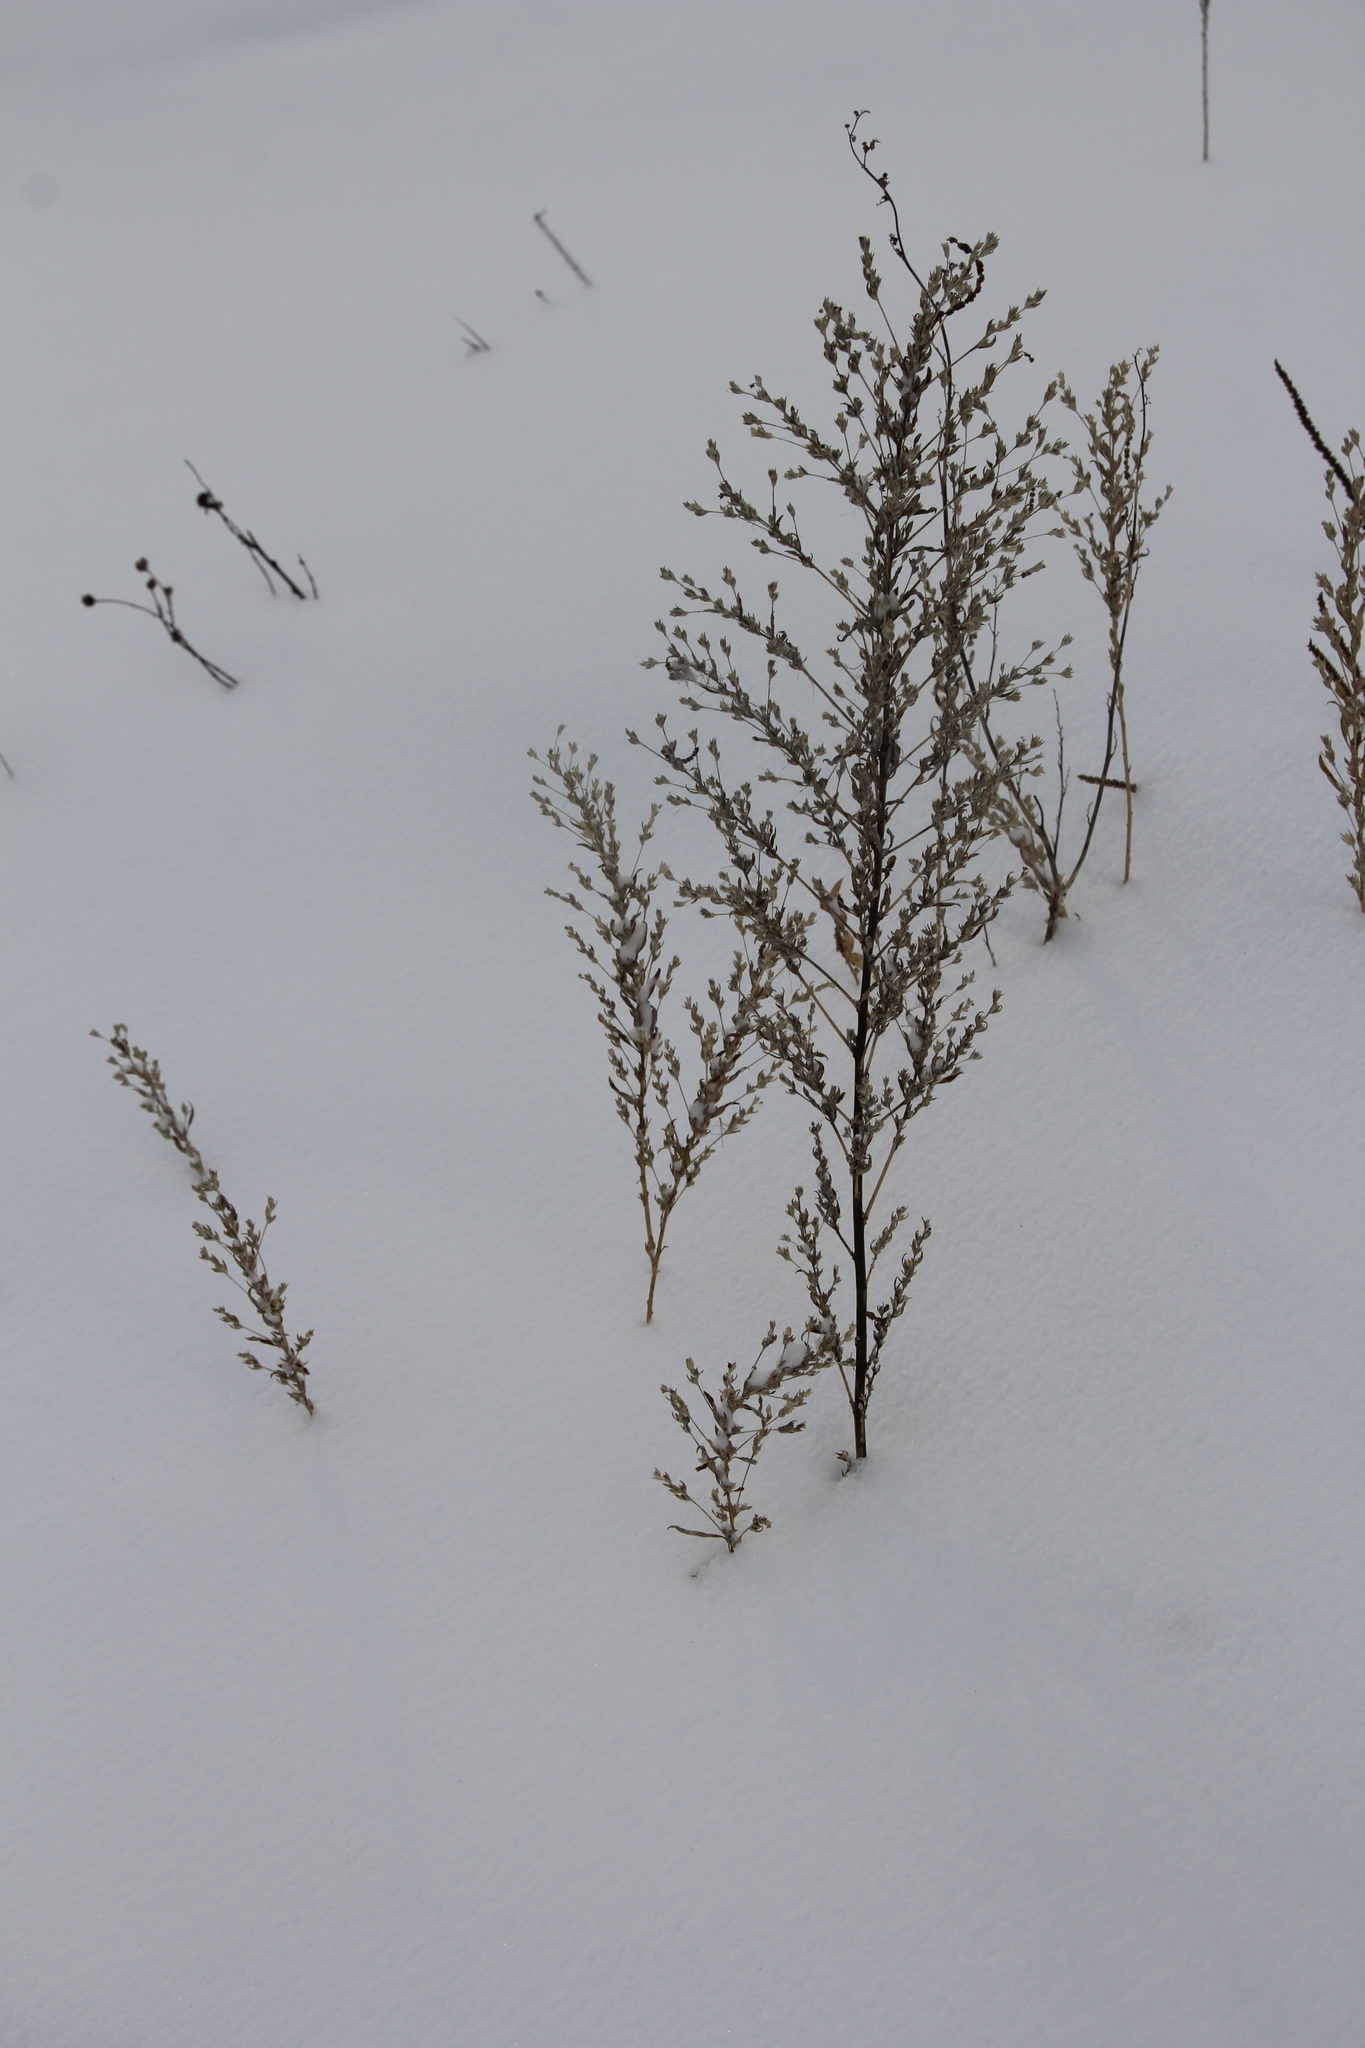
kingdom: Plantae
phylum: Tracheophyta
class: Magnoliopsida
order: Caryophyllales
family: Amaranthaceae
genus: Axyris
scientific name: Axyris amaranthoides
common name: Russian pigweed
